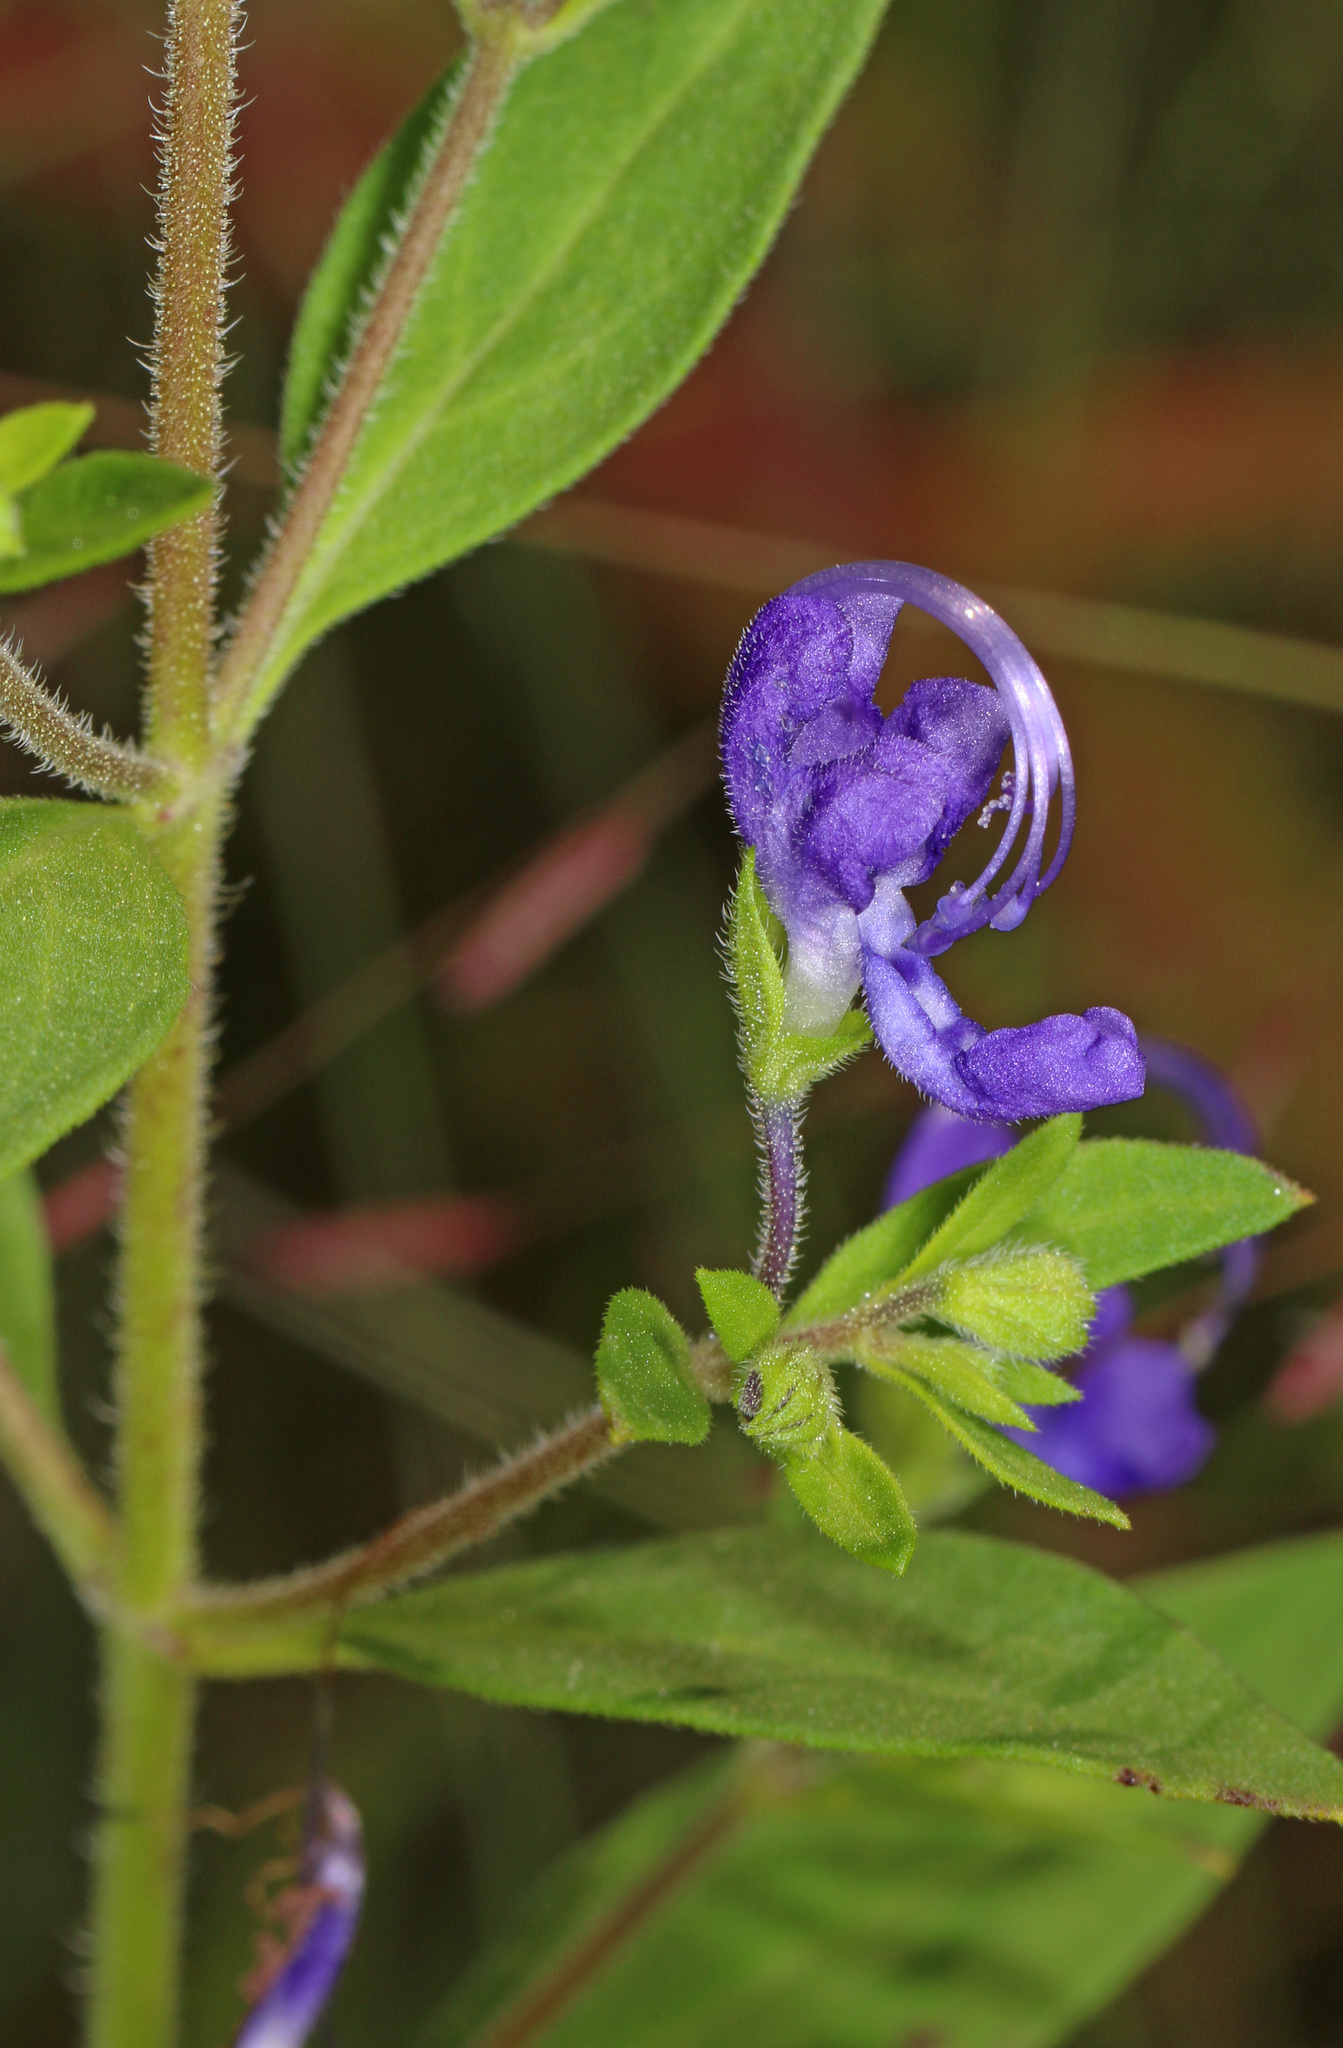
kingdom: Plantae
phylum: Tracheophyta
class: Magnoliopsida
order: Lamiales
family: Lamiaceae
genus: Trichostema
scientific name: Trichostema dichotomum
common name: Bastard pennyroyal
